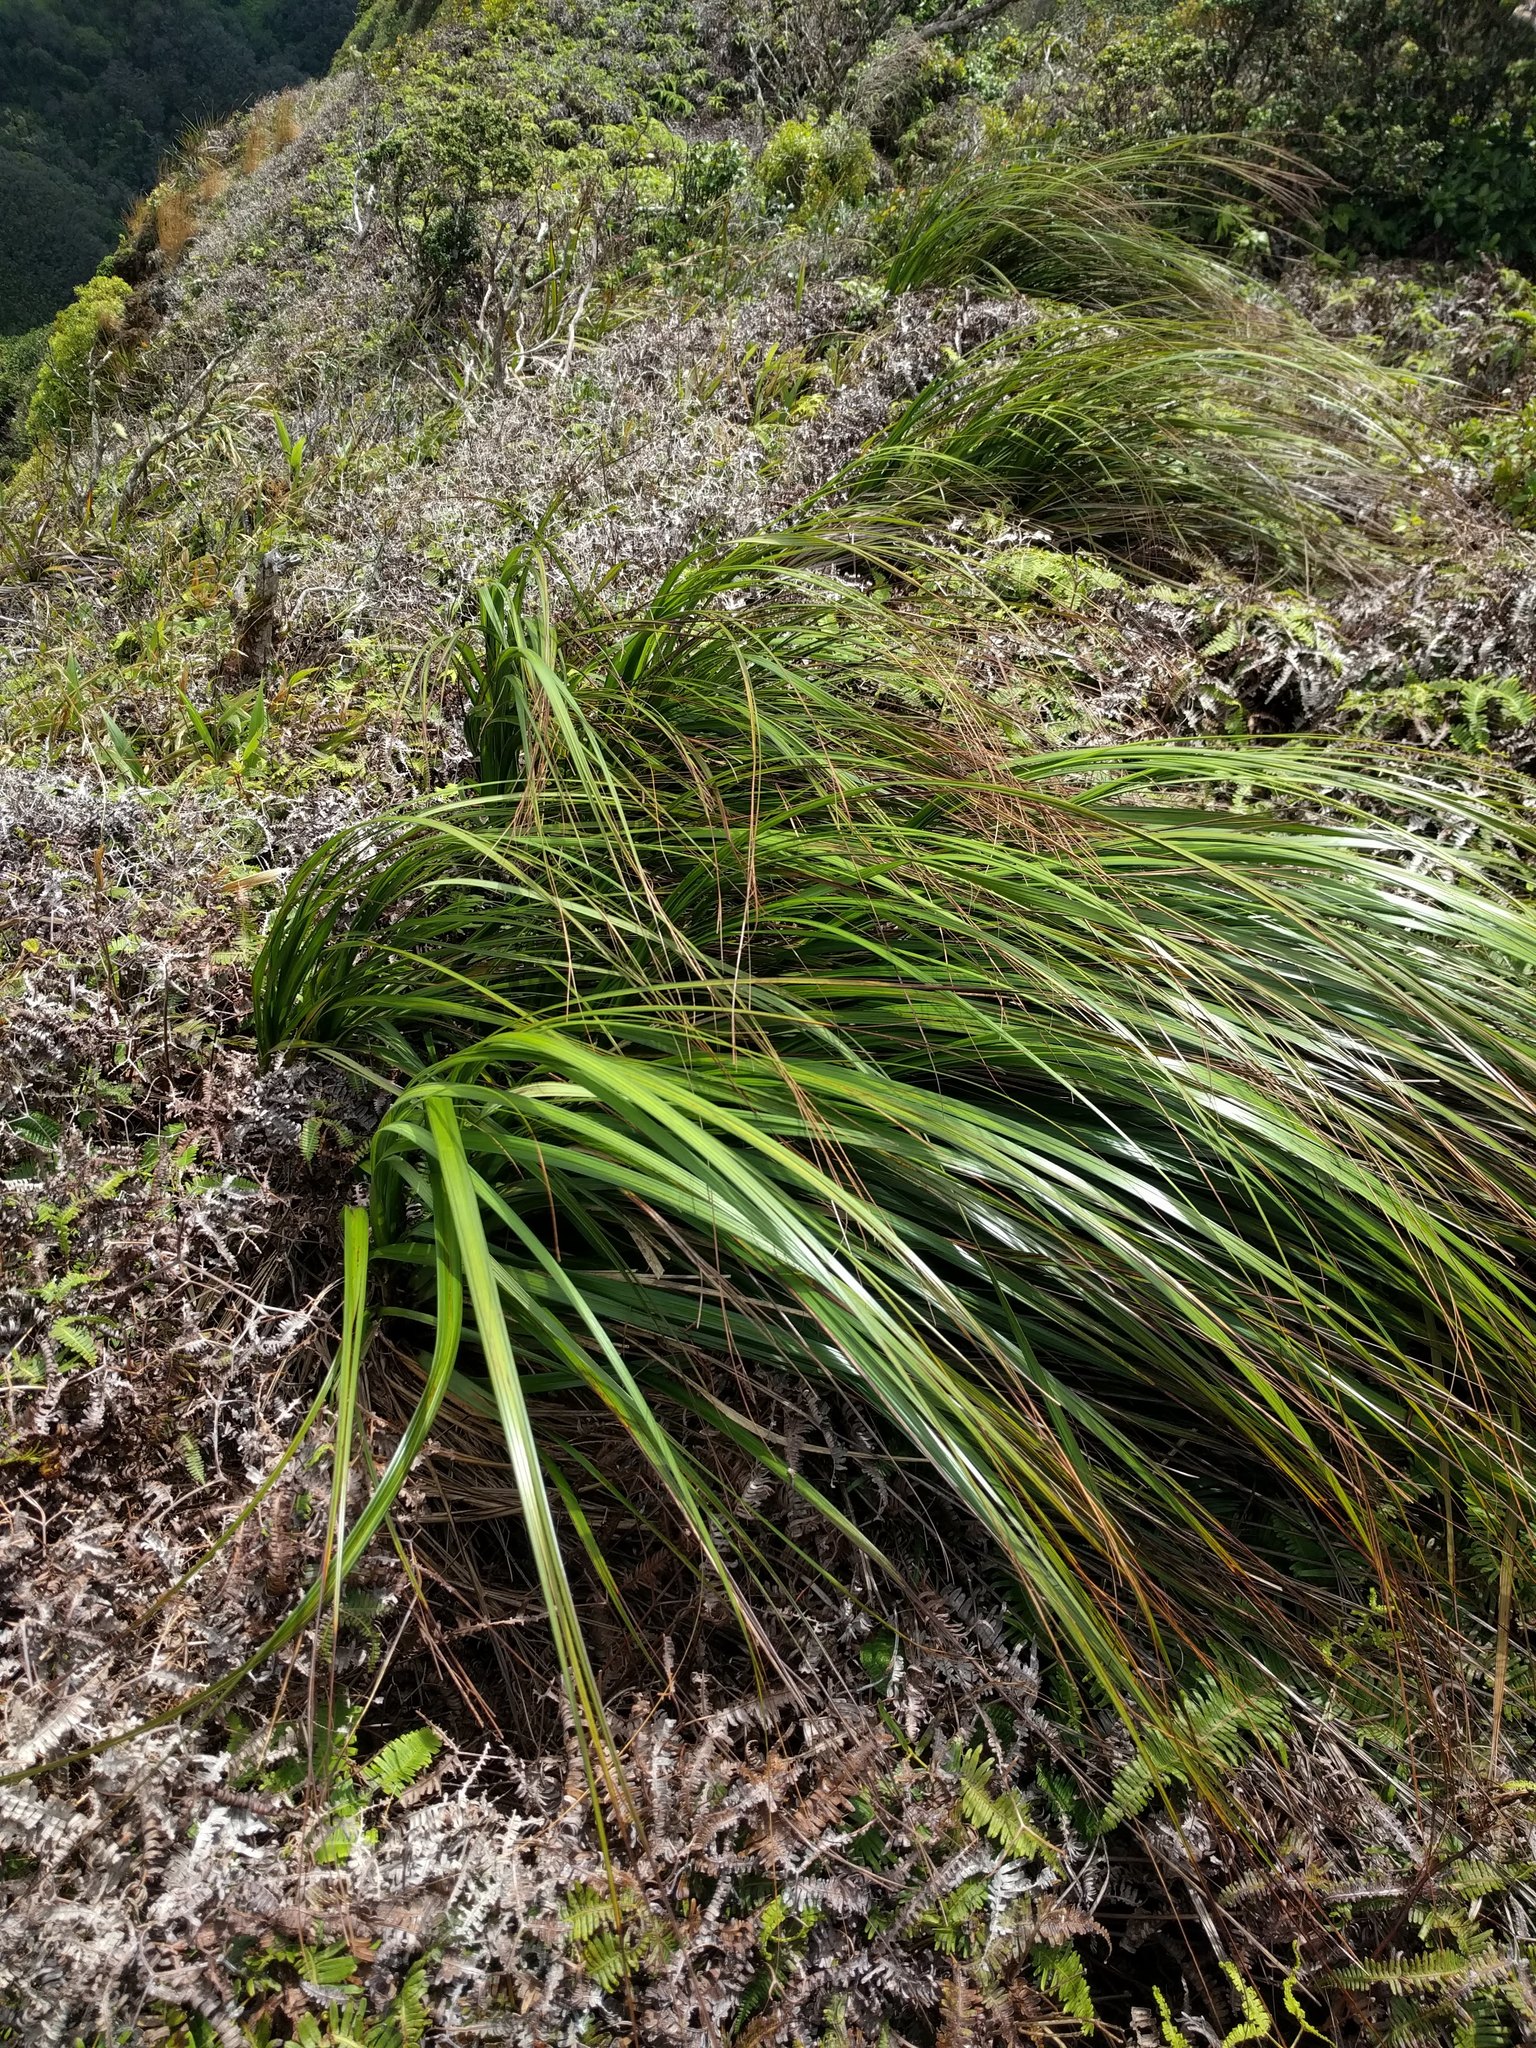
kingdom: Plantae
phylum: Tracheophyta
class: Liliopsida
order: Poales
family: Cyperaceae
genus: Gahnia
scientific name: Gahnia beecheyi
